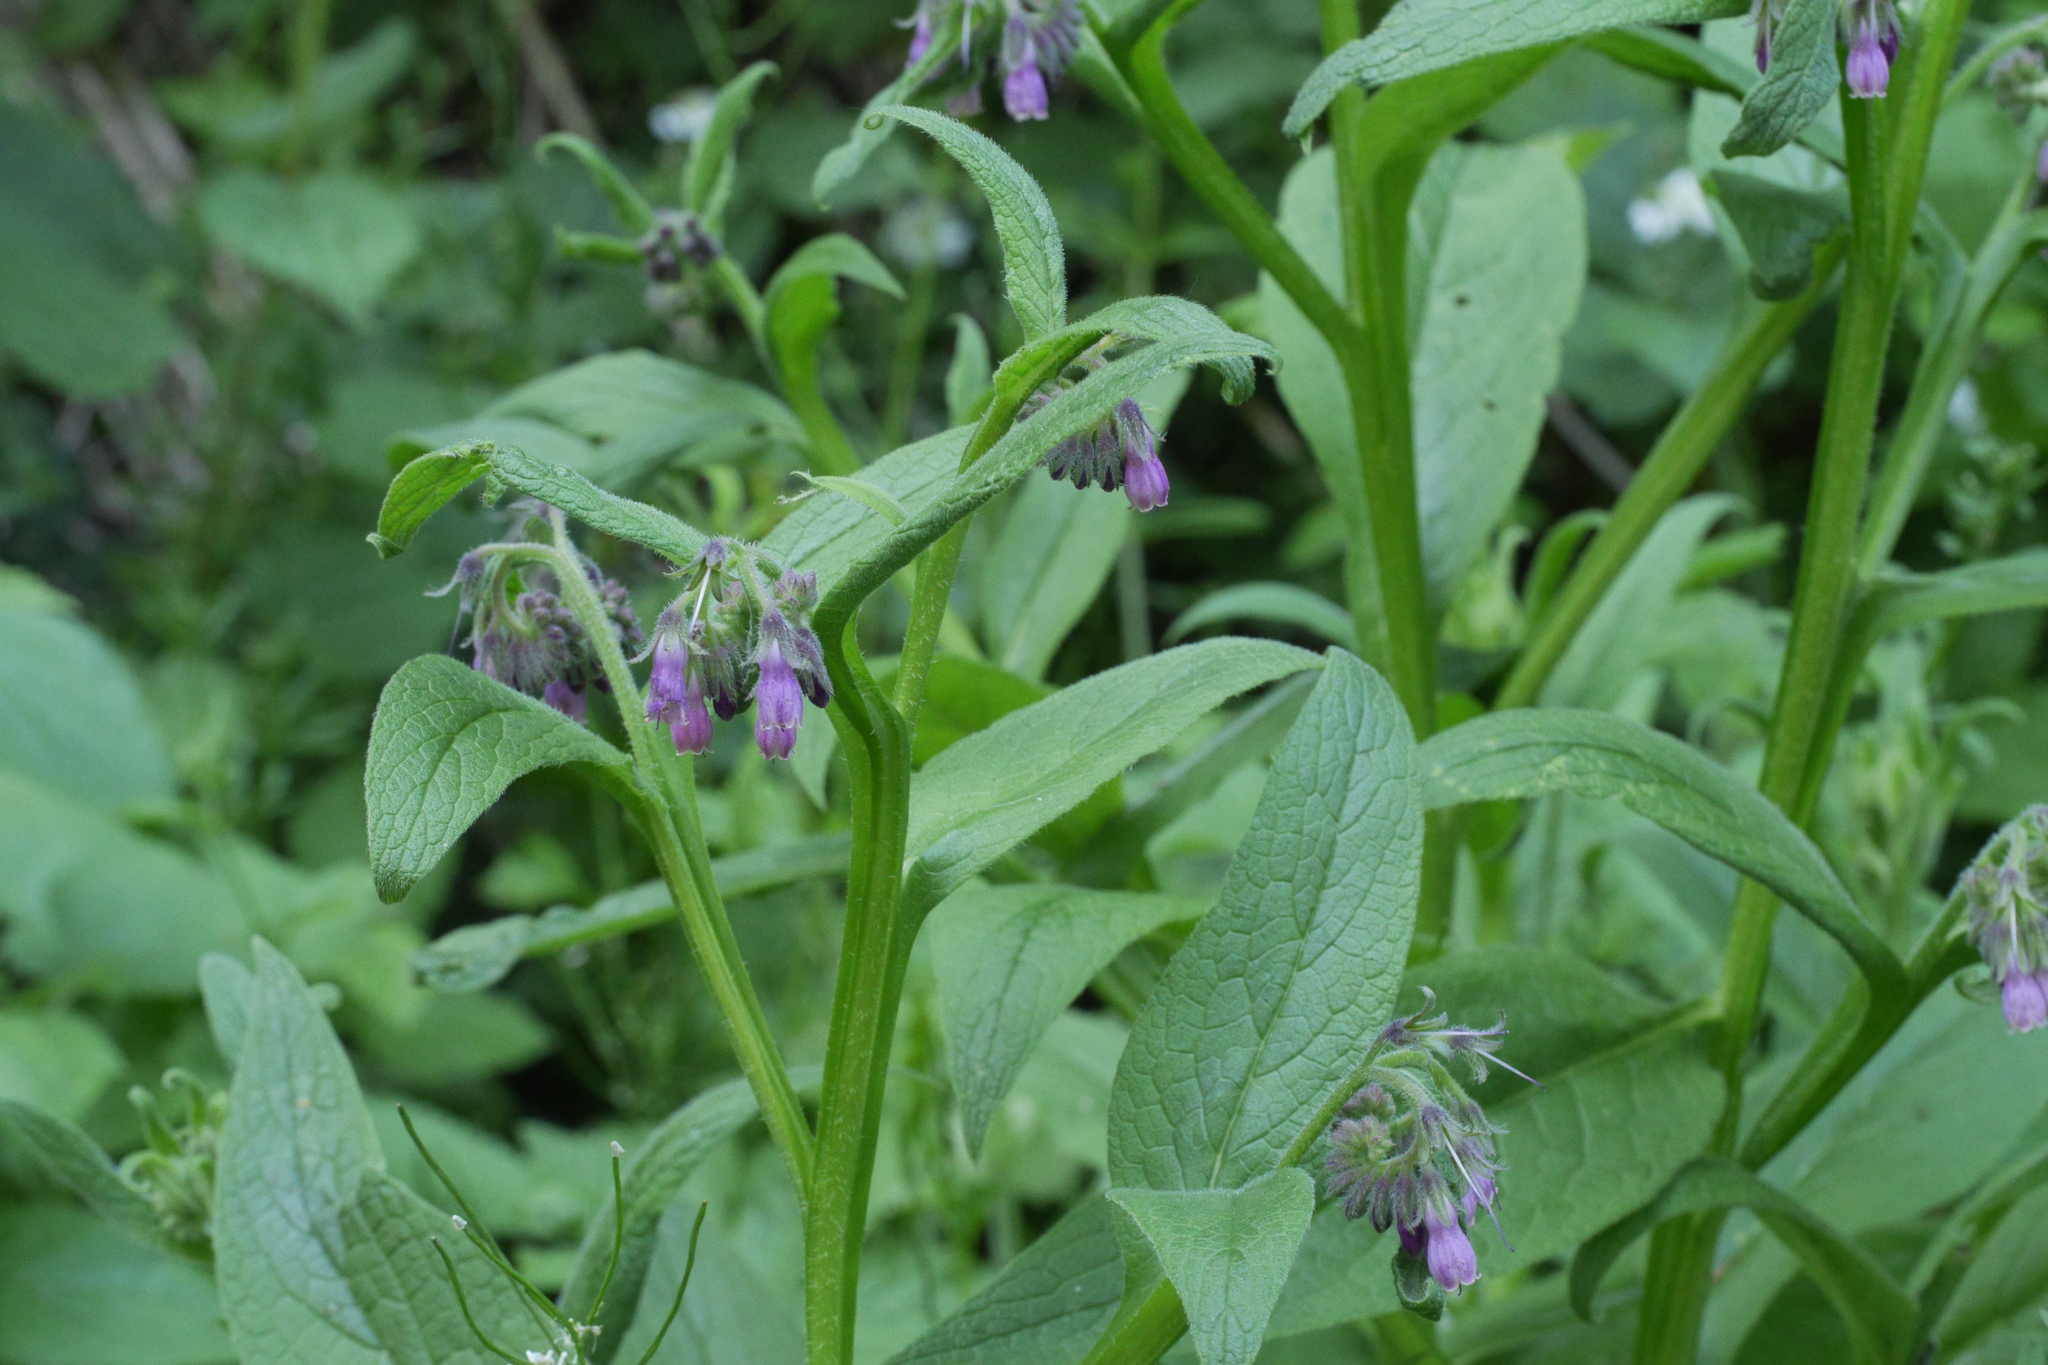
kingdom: Plantae
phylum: Tracheophyta
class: Magnoliopsida
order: Boraginales
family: Boraginaceae
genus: Symphytum
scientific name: Symphytum officinale
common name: Common comfrey
